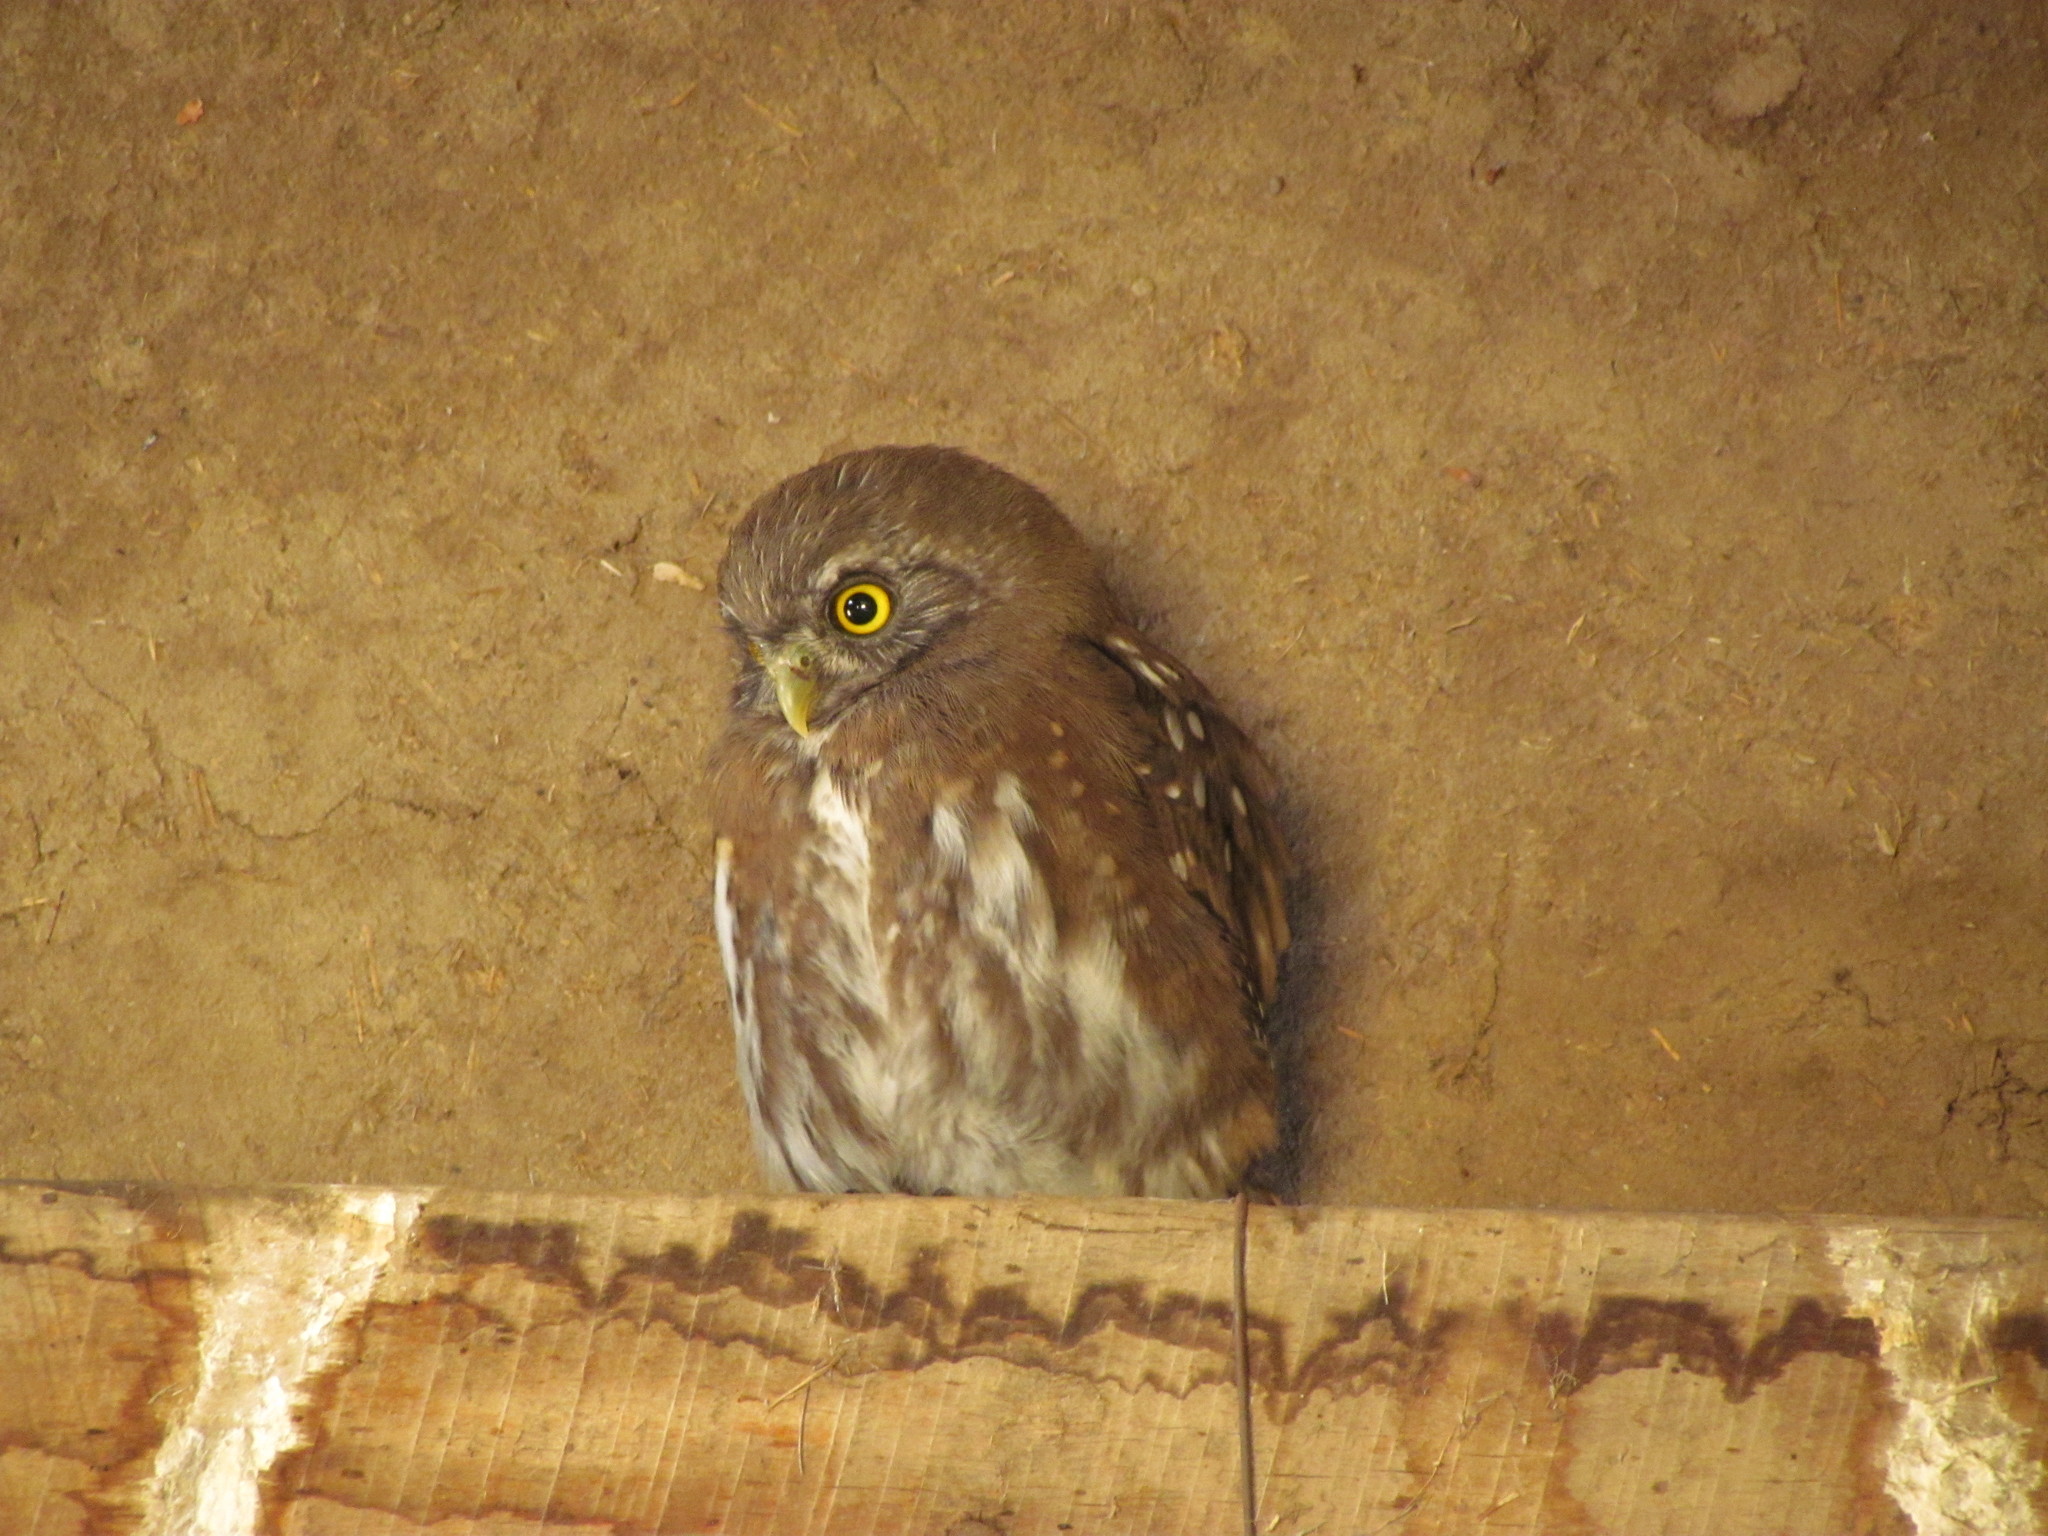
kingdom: Animalia
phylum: Chordata
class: Aves
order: Strigiformes
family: Strigidae
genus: Glaucidium
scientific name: Glaucidium nana
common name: Austral pygmy-owl
